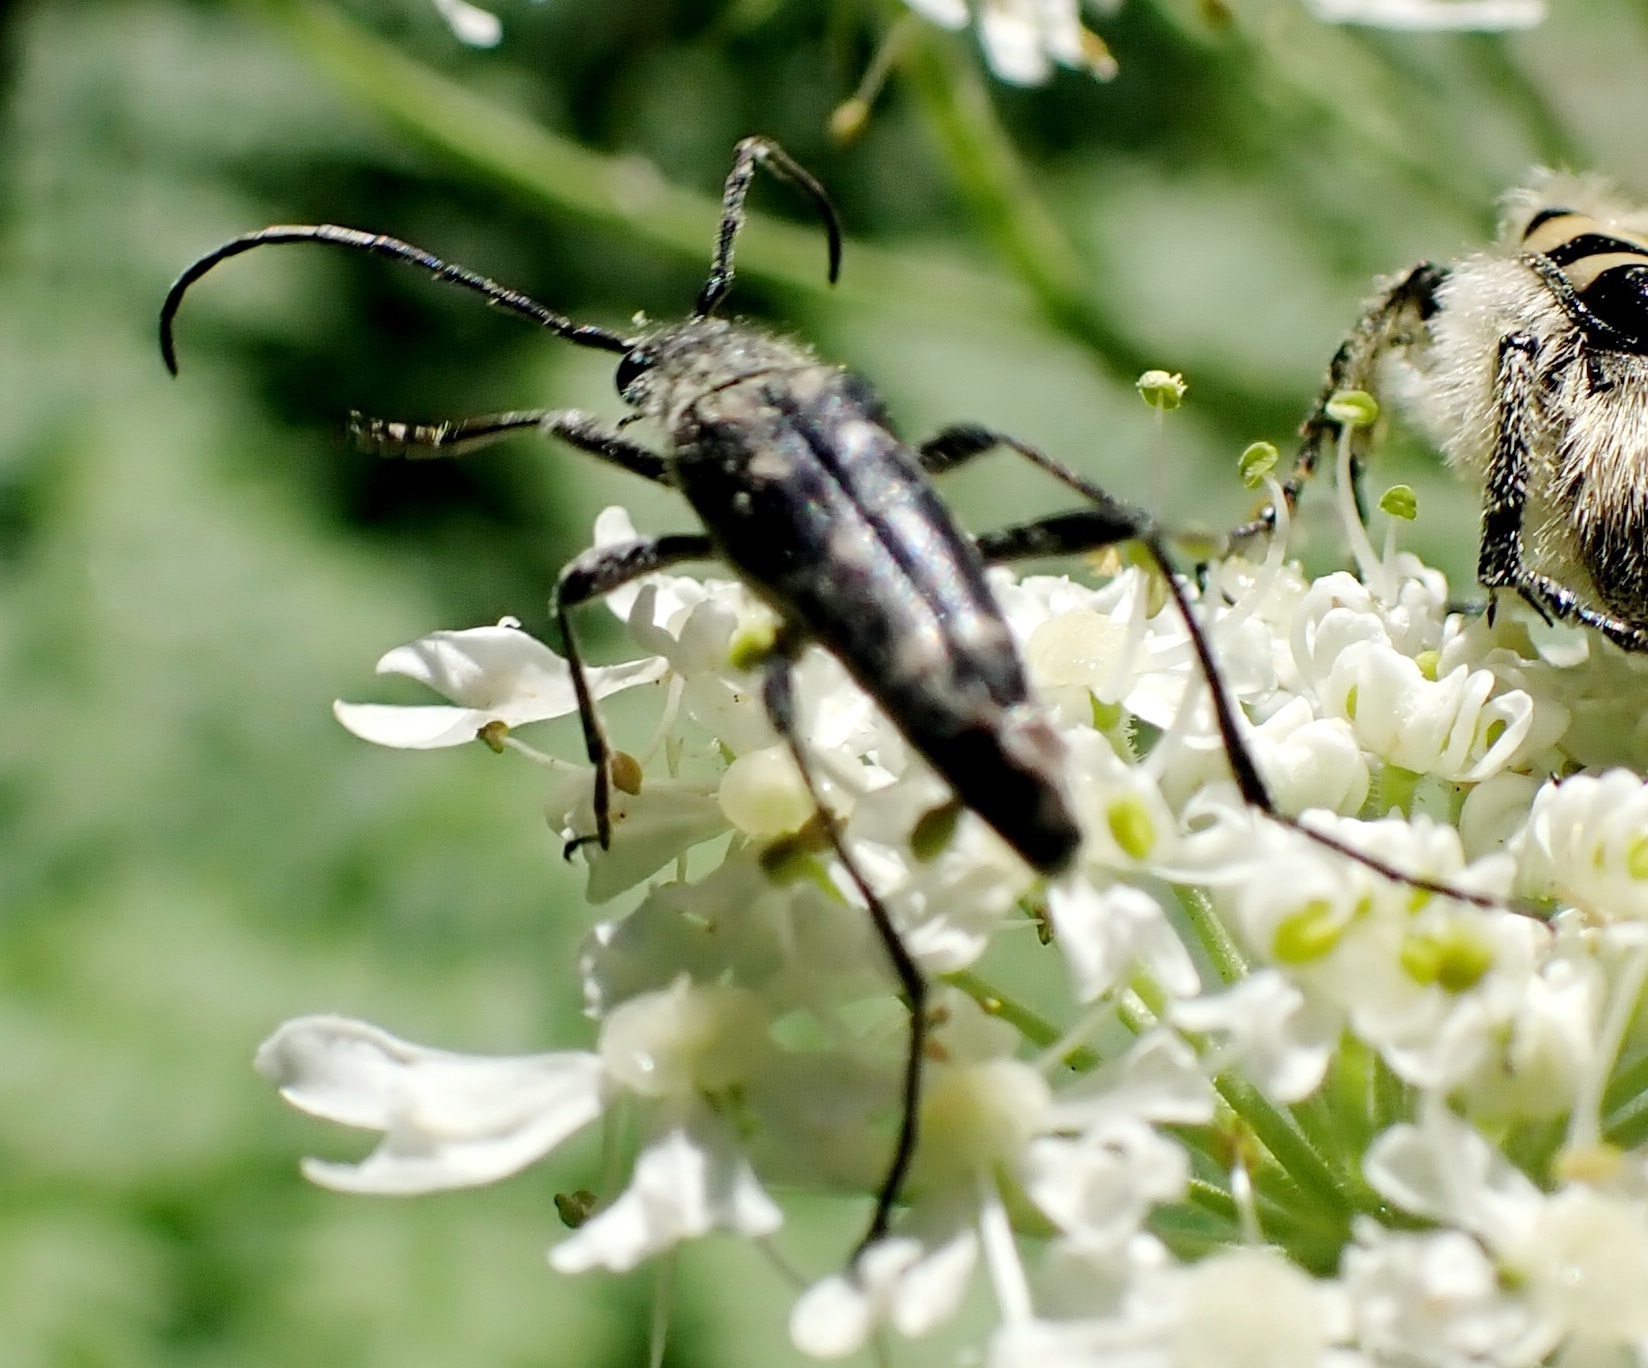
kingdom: Animalia
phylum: Arthropoda
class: Insecta
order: Coleoptera
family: Cerambycidae
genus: Leptura
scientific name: Leptura duodecimguttata
